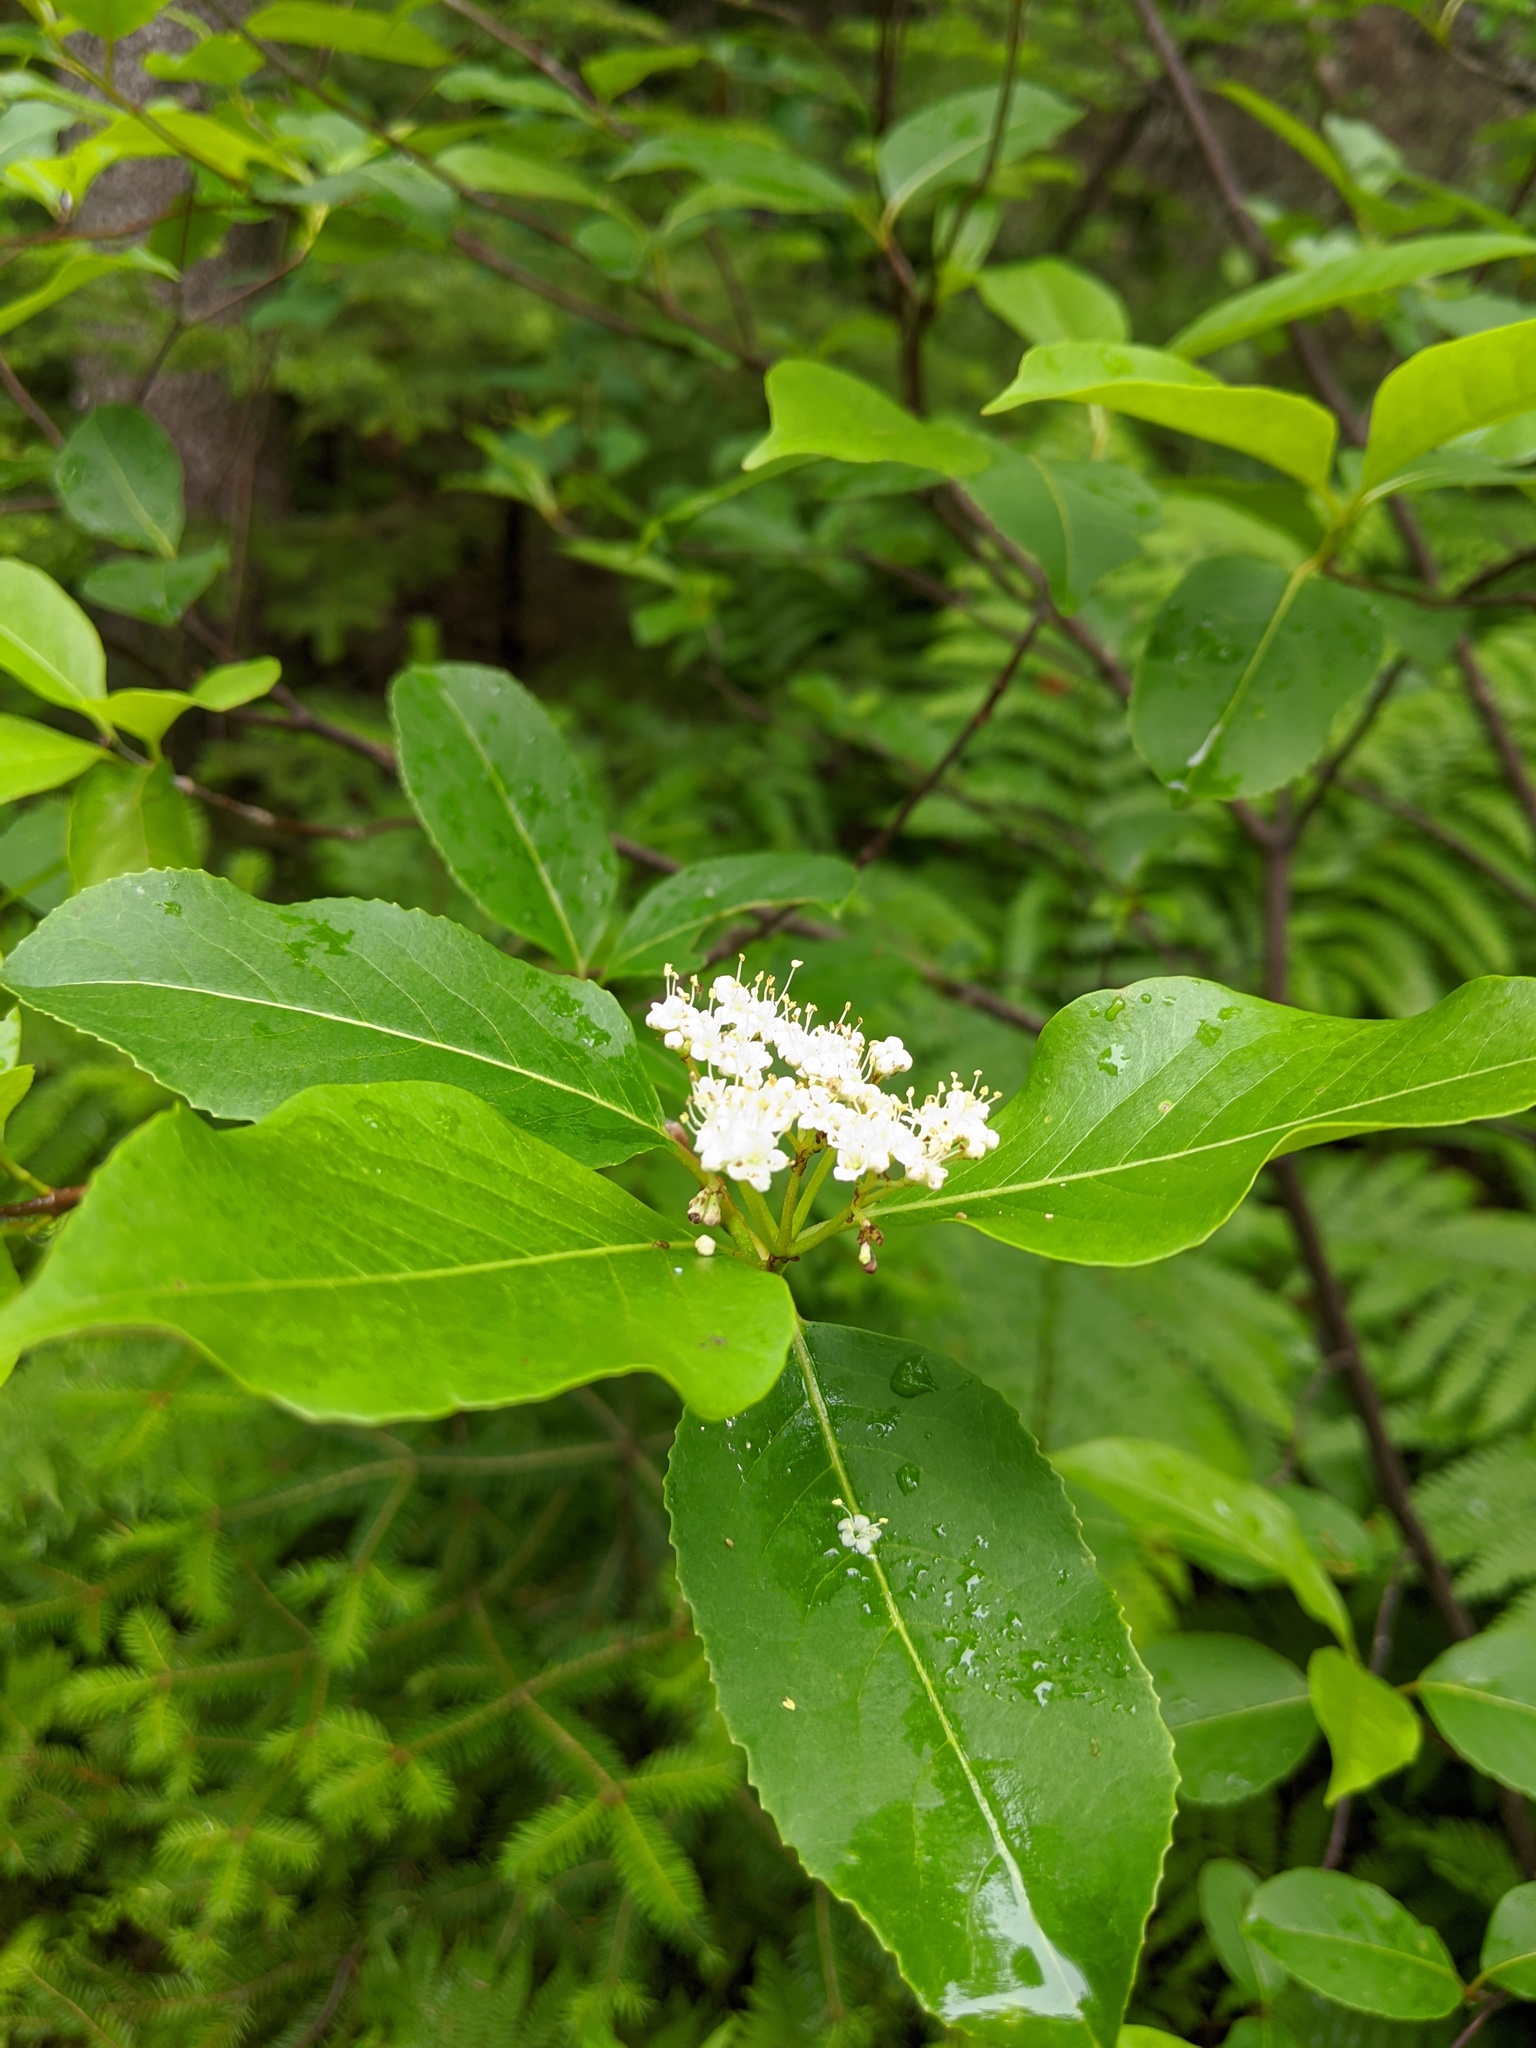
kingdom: Plantae
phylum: Tracheophyta
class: Magnoliopsida
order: Dipsacales
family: Viburnaceae
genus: Viburnum
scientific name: Viburnum cassinoides
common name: Swamp haw
